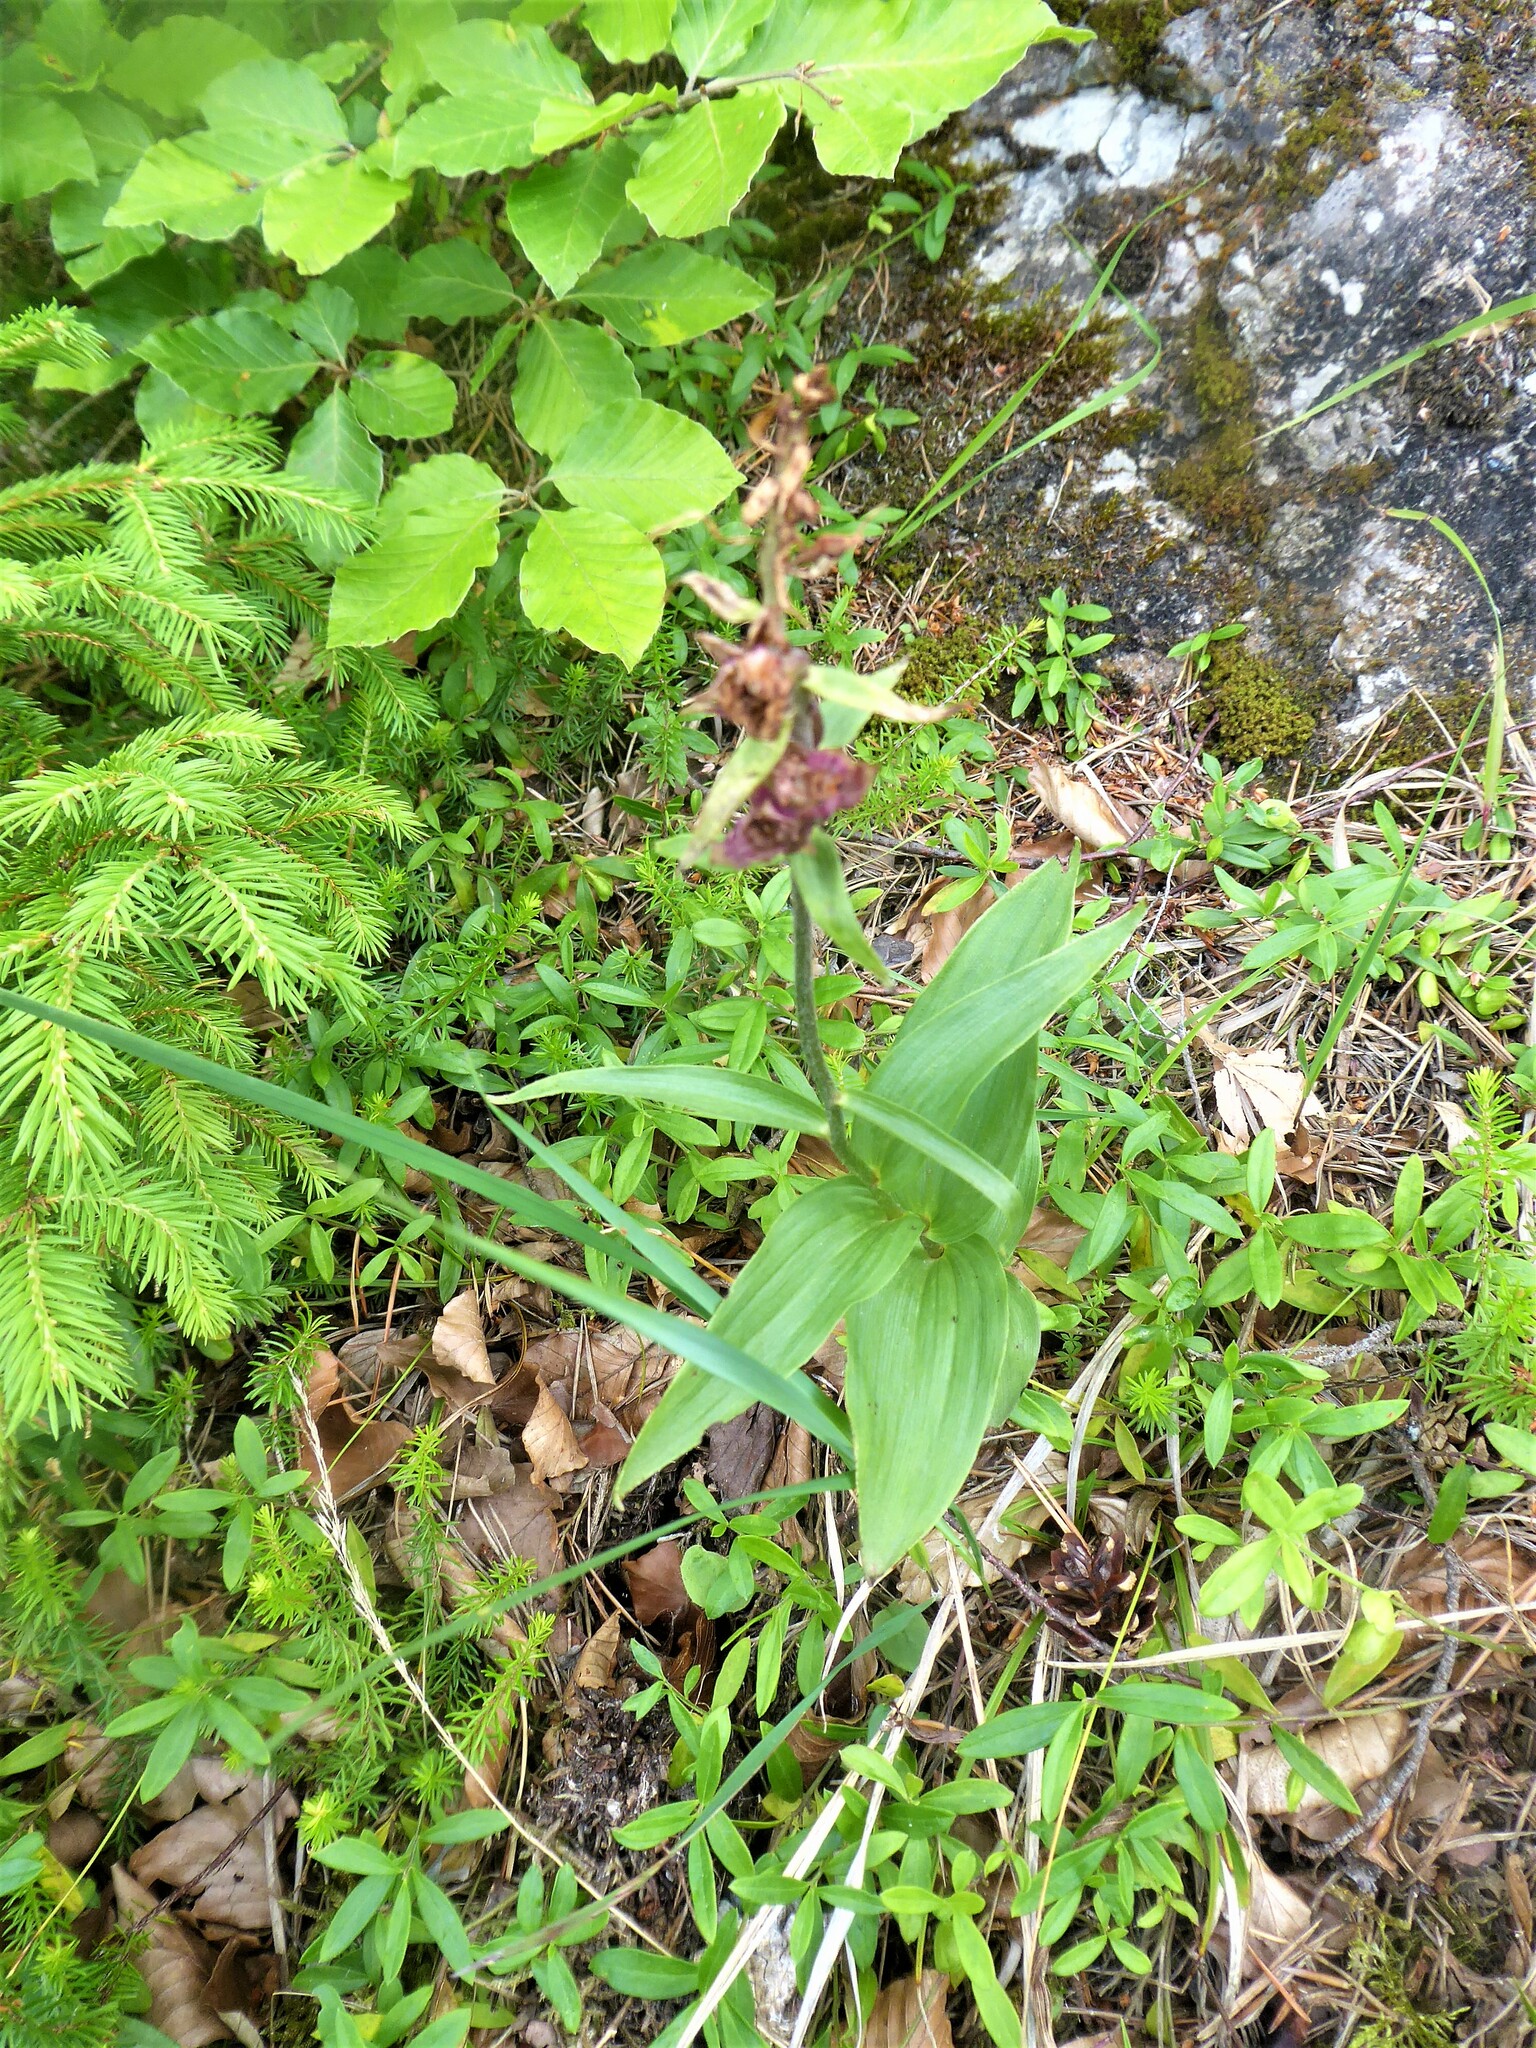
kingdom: Plantae
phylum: Tracheophyta
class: Liliopsida
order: Asparagales
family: Orchidaceae
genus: Epipactis
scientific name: Epipactis atrorubens
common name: Dark-red helleborine
